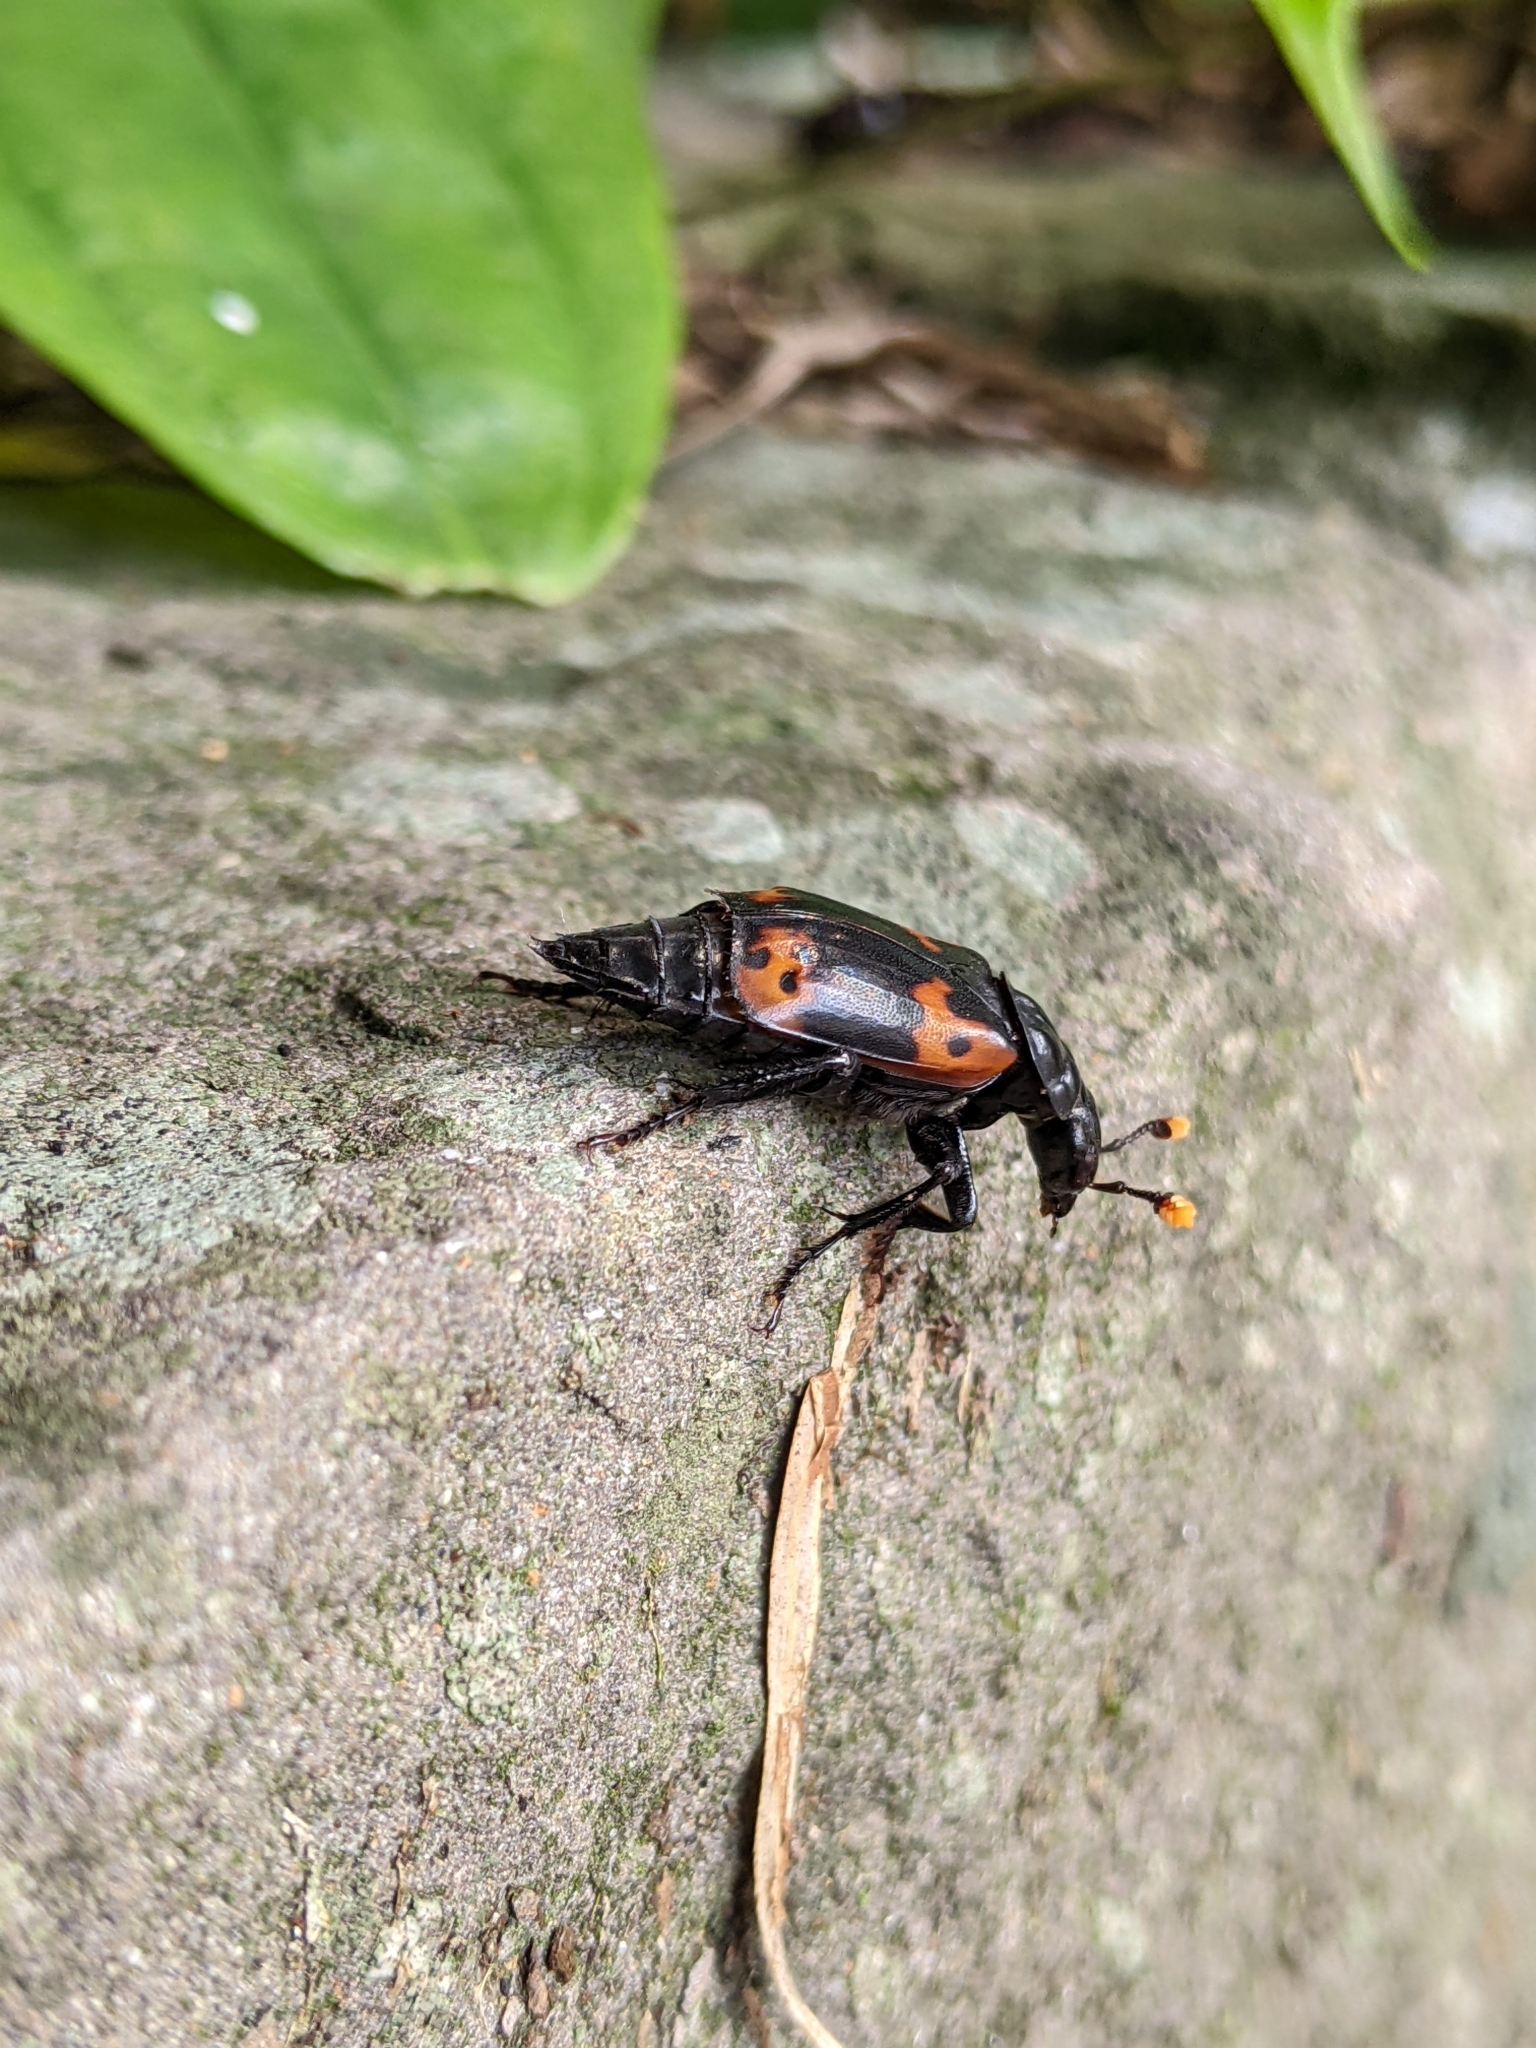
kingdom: Animalia
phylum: Arthropoda
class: Insecta
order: Coleoptera
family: Staphylinidae
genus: Nicrophorus
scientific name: Nicrophorus nepalensis
